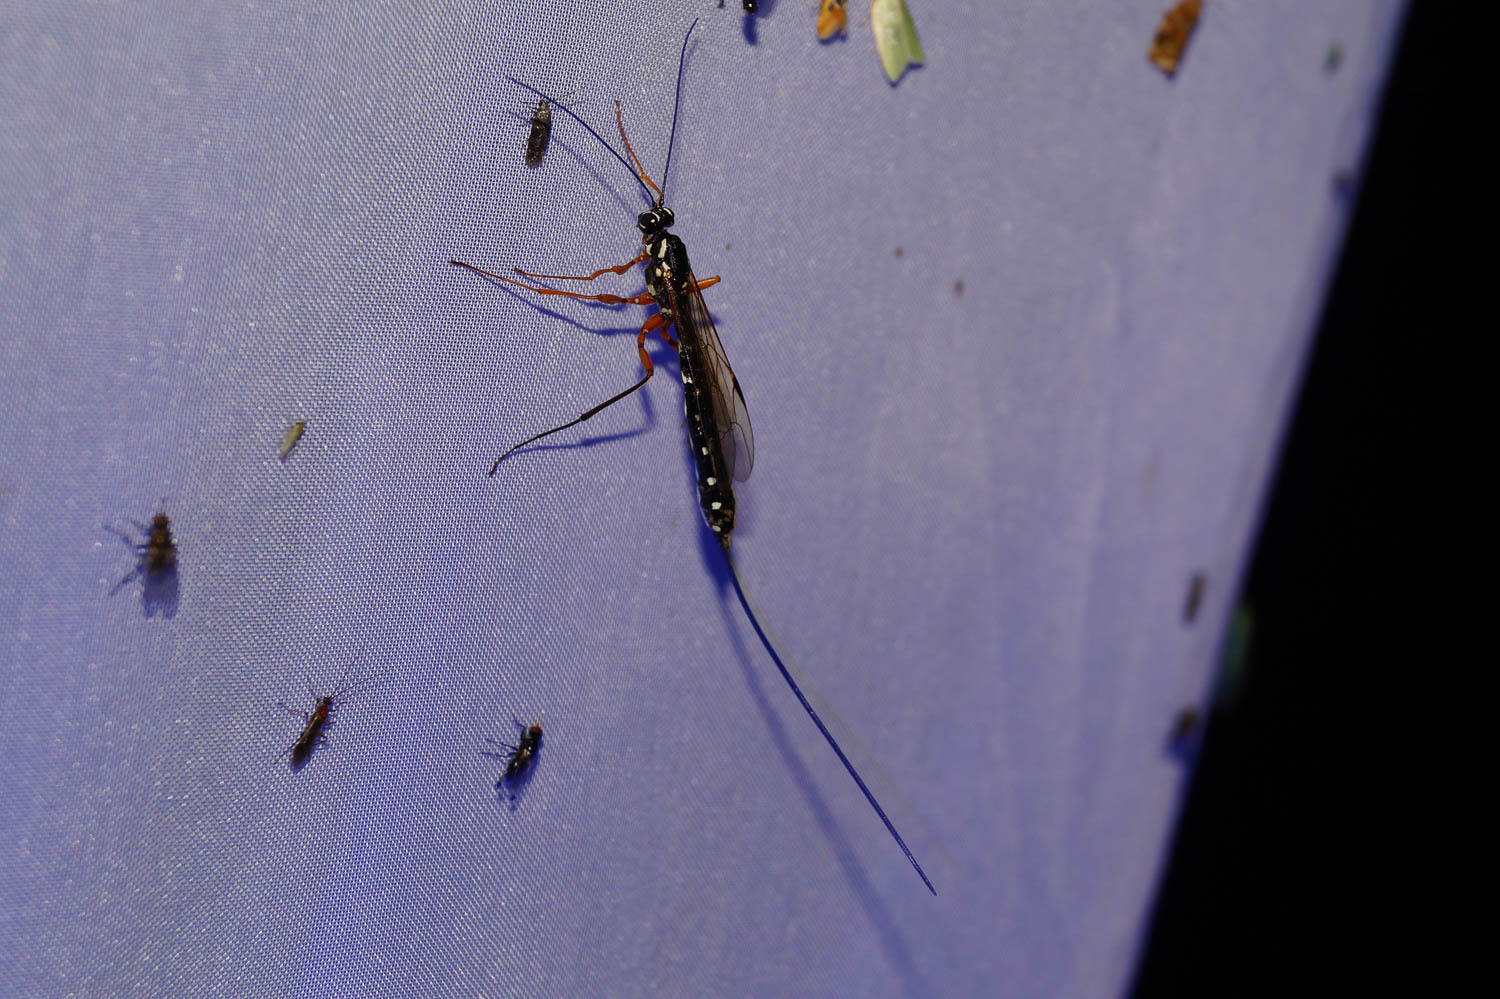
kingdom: Animalia
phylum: Arthropoda
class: Insecta
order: Hymenoptera
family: Ichneumonidae
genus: Rhyssa
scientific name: Rhyssa persuasoria
